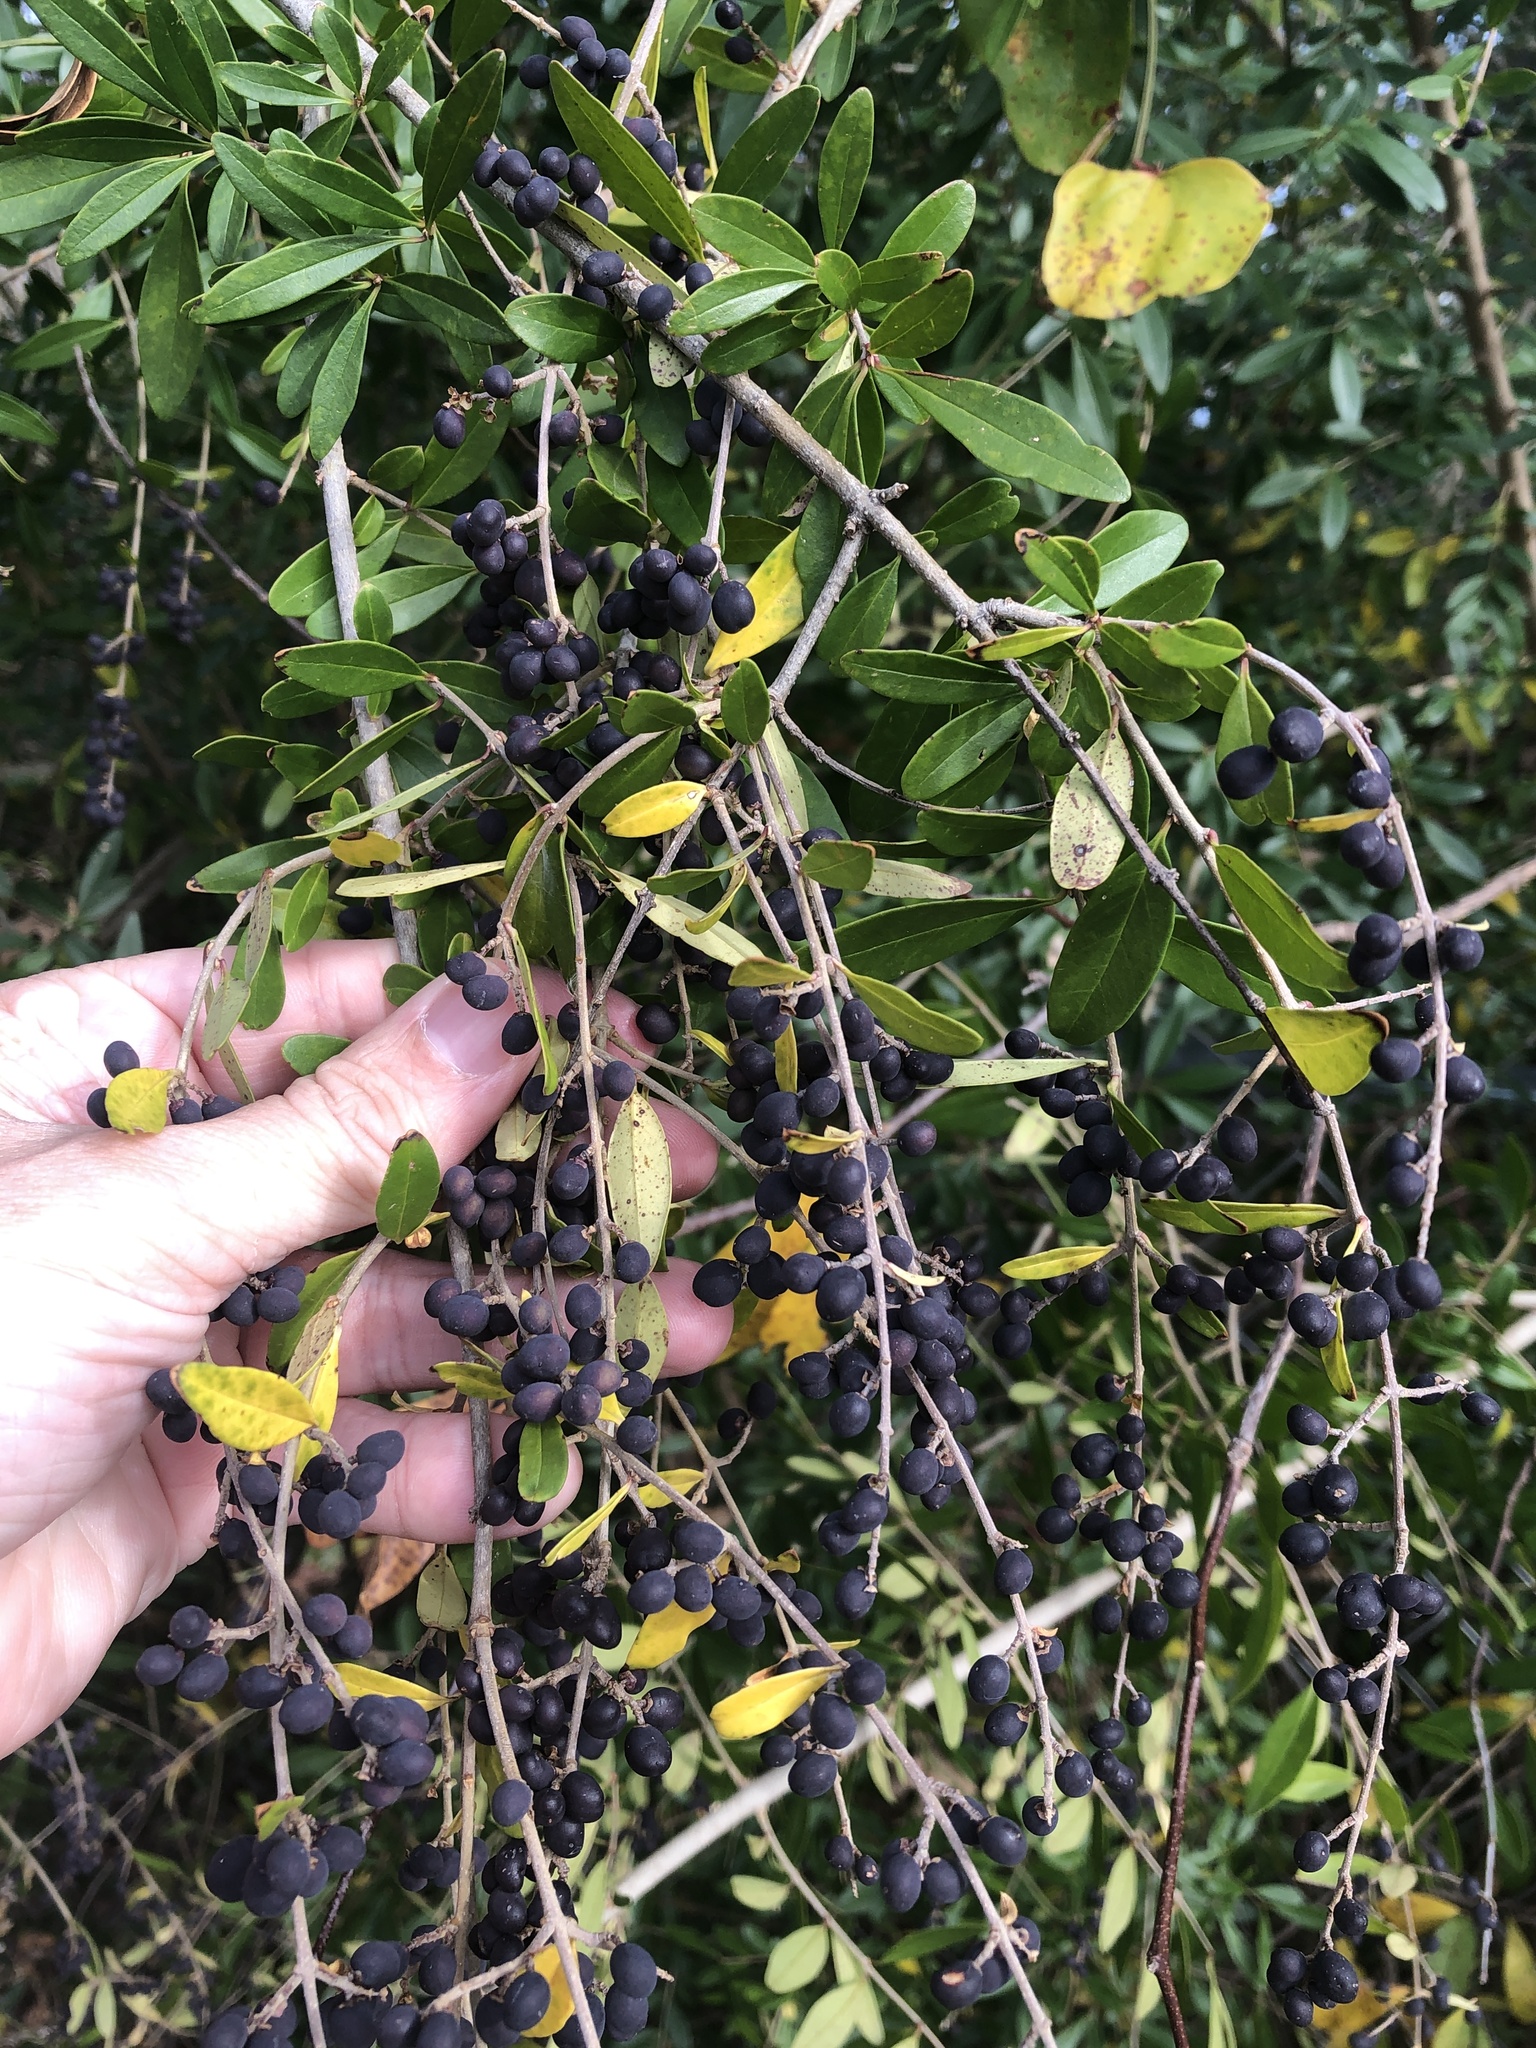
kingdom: Plantae
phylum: Tracheophyta
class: Magnoliopsida
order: Lamiales
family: Oleaceae
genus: Ligustrum
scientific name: Ligustrum quihoui
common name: Waxyleaf privet
